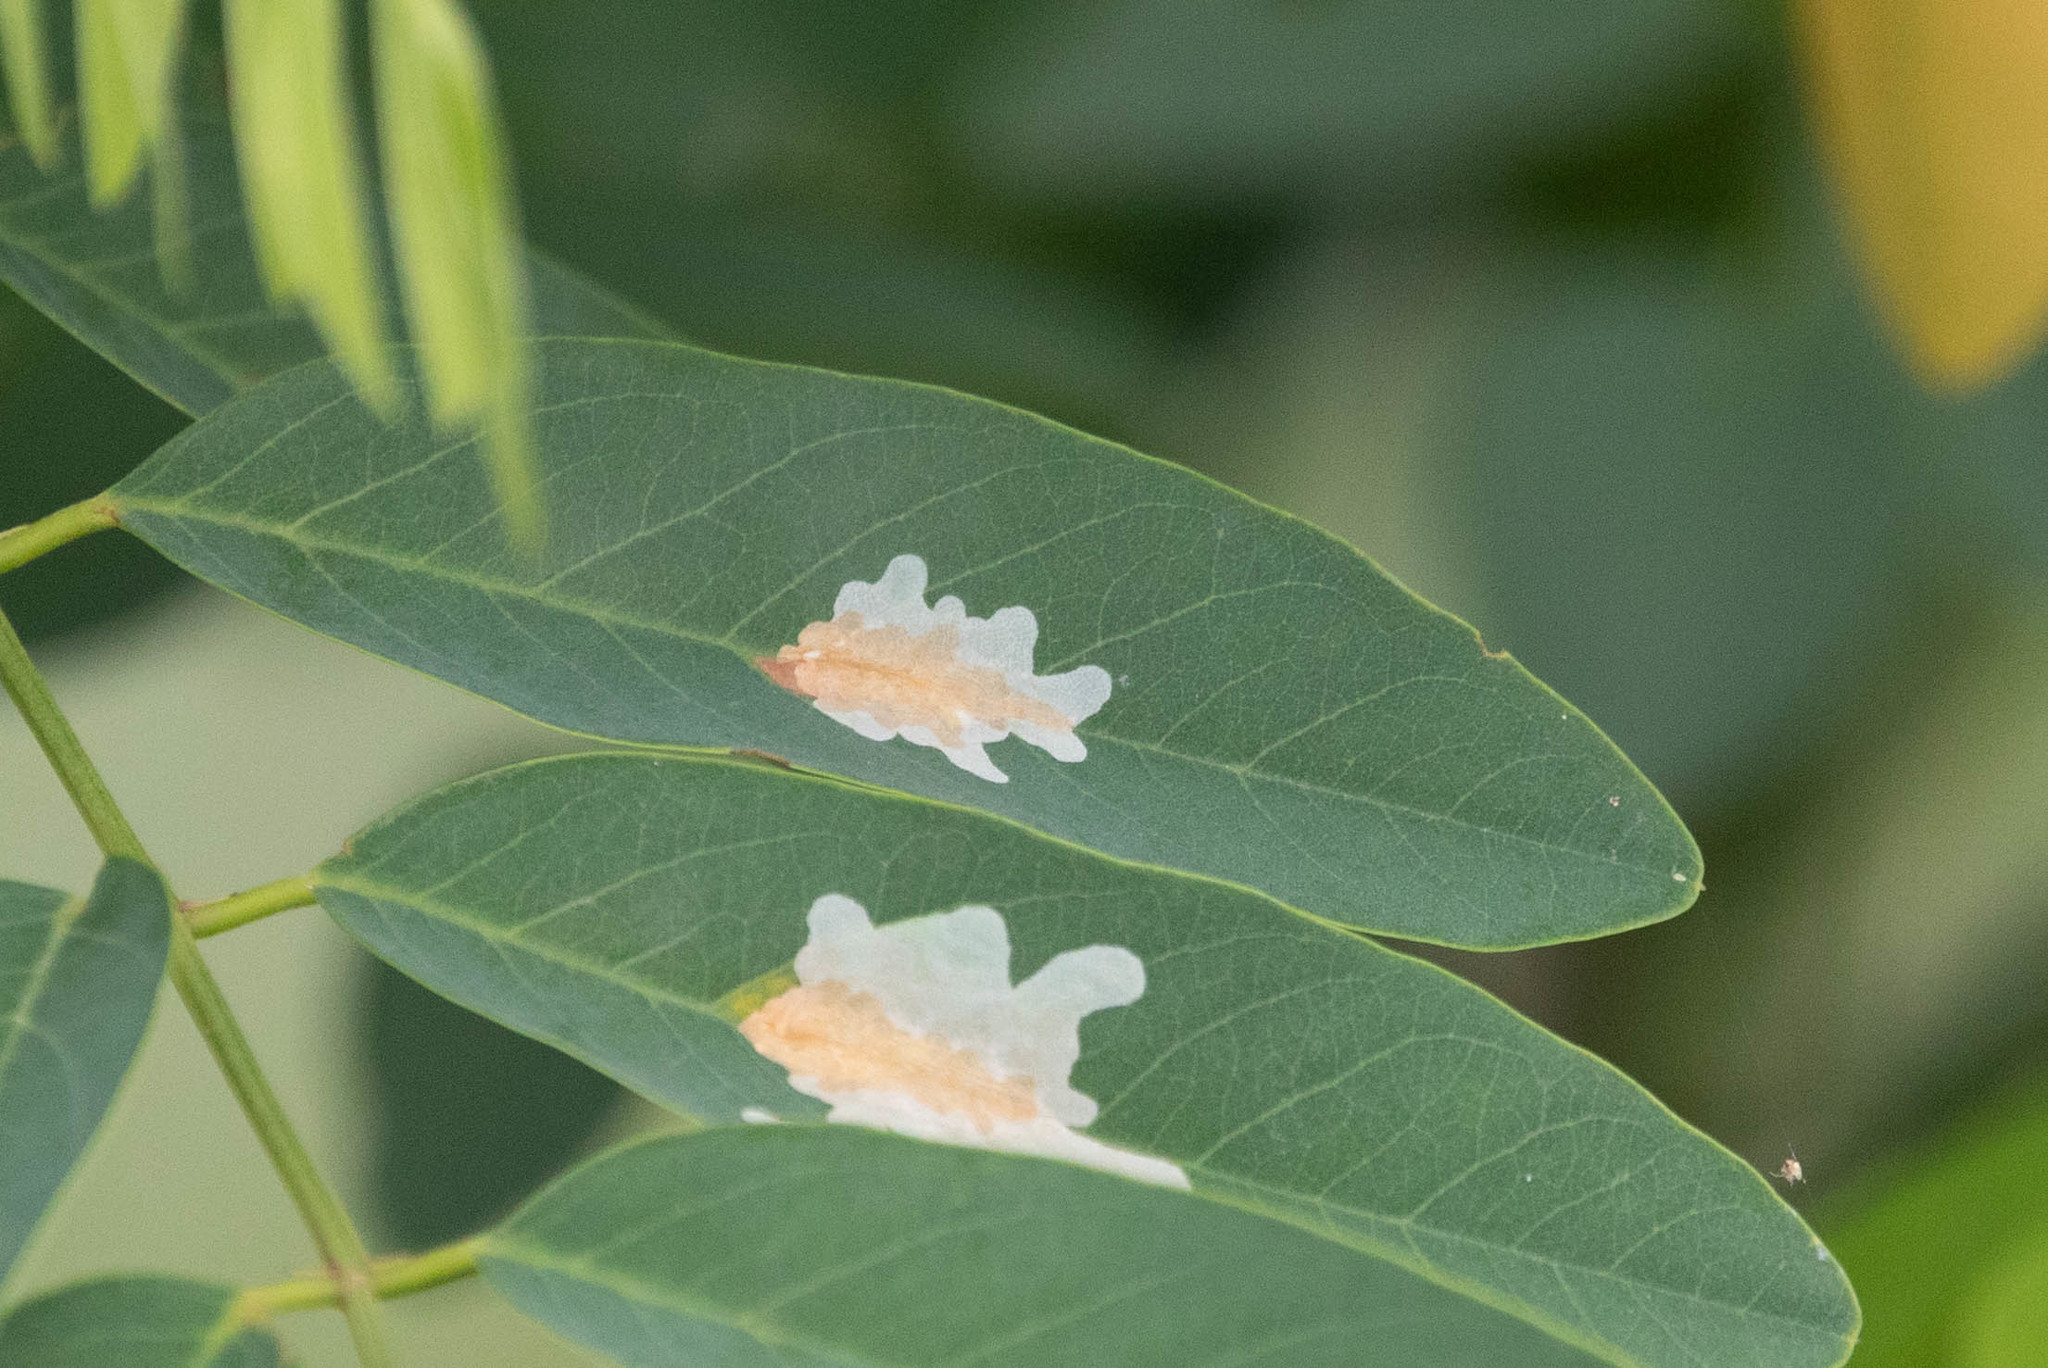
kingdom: Animalia
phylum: Arthropoda
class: Insecta
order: Lepidoptera
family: Gracillariidae
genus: Parectopa
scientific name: Parectopa robiniella
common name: Locust digitate leafminer
